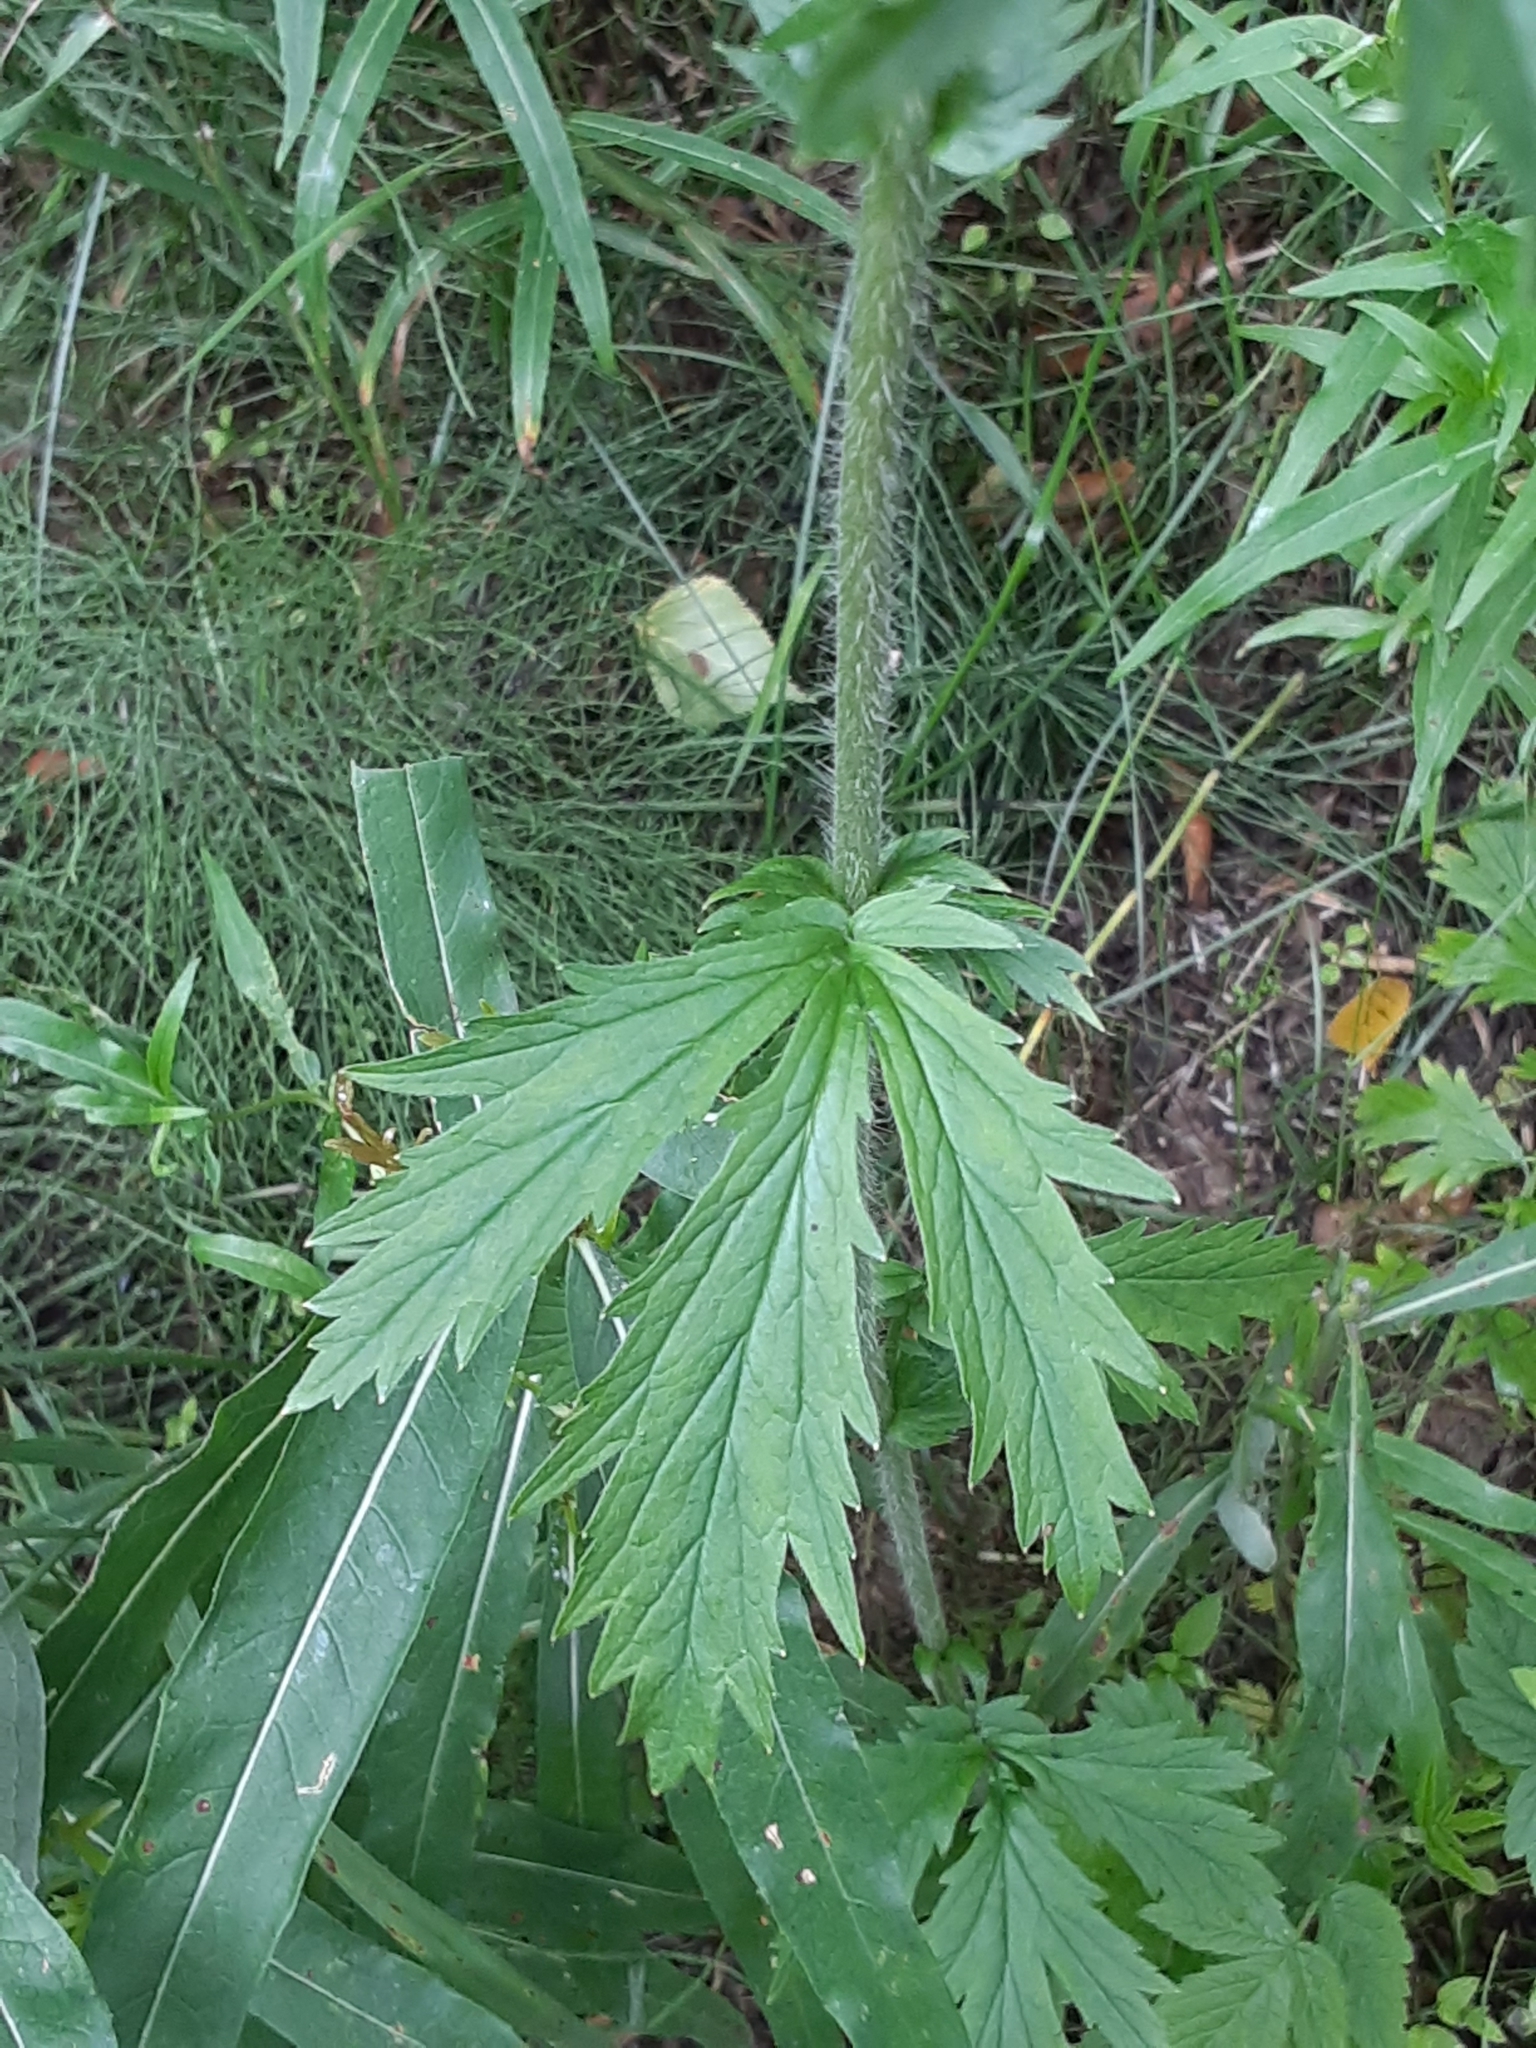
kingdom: Plantae
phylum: Tracheophyta
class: Magnoliopsida
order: Rosales
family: Rosaceae
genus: Geum
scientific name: Geum macrophyllum
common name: Large-leaved avens
